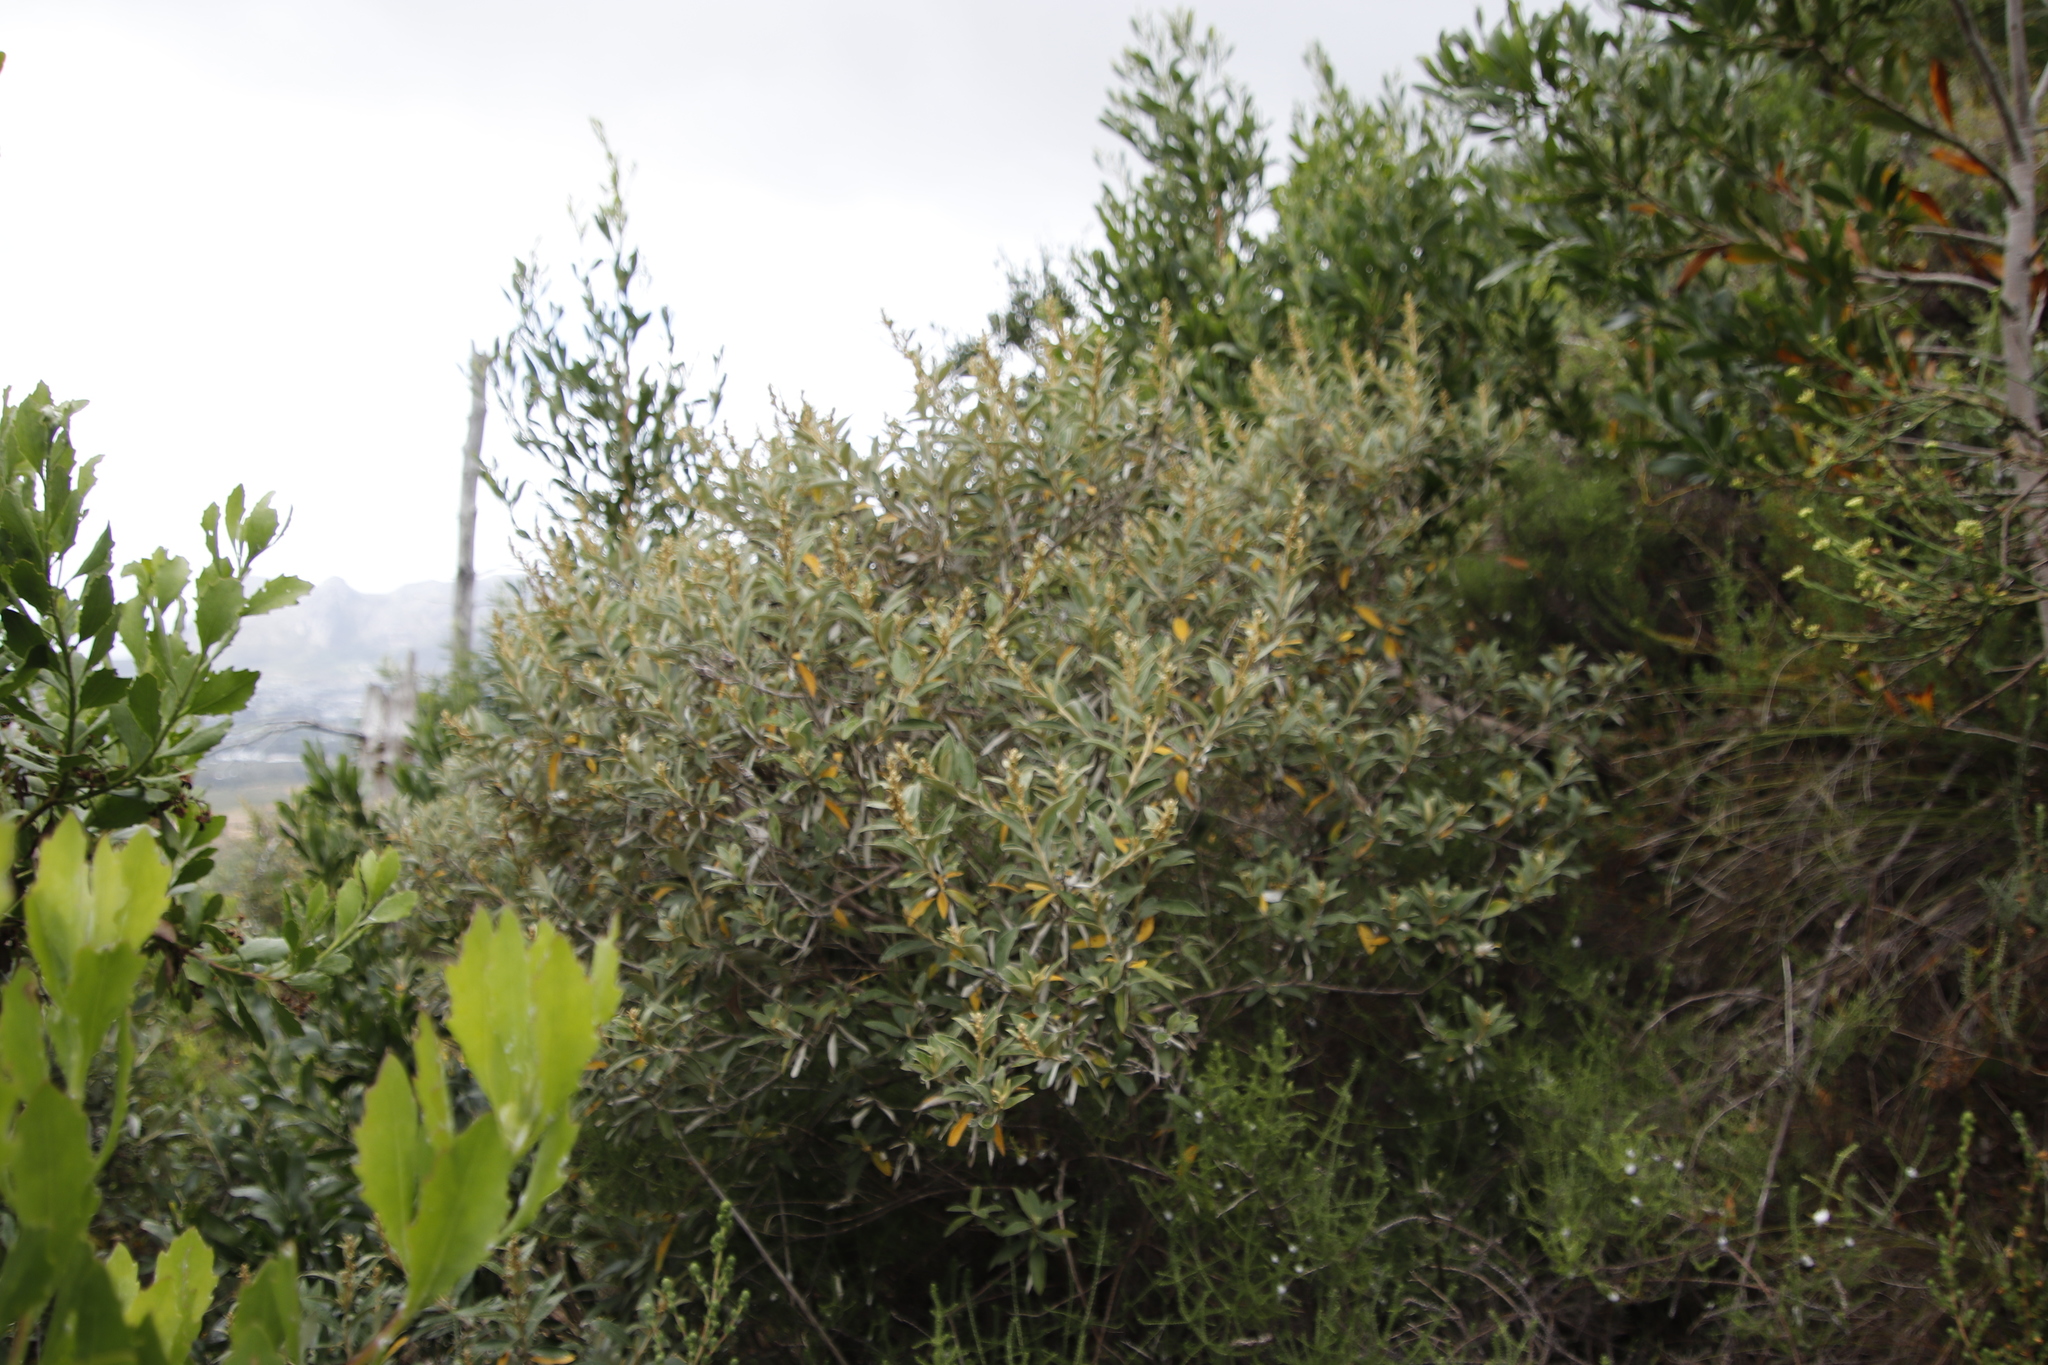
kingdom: Plantae
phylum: Tracheophyta
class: Magnoliopsida
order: Asterales
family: Asteraceae
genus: Tarchonanthus
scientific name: Tarchonanthus littoralis
